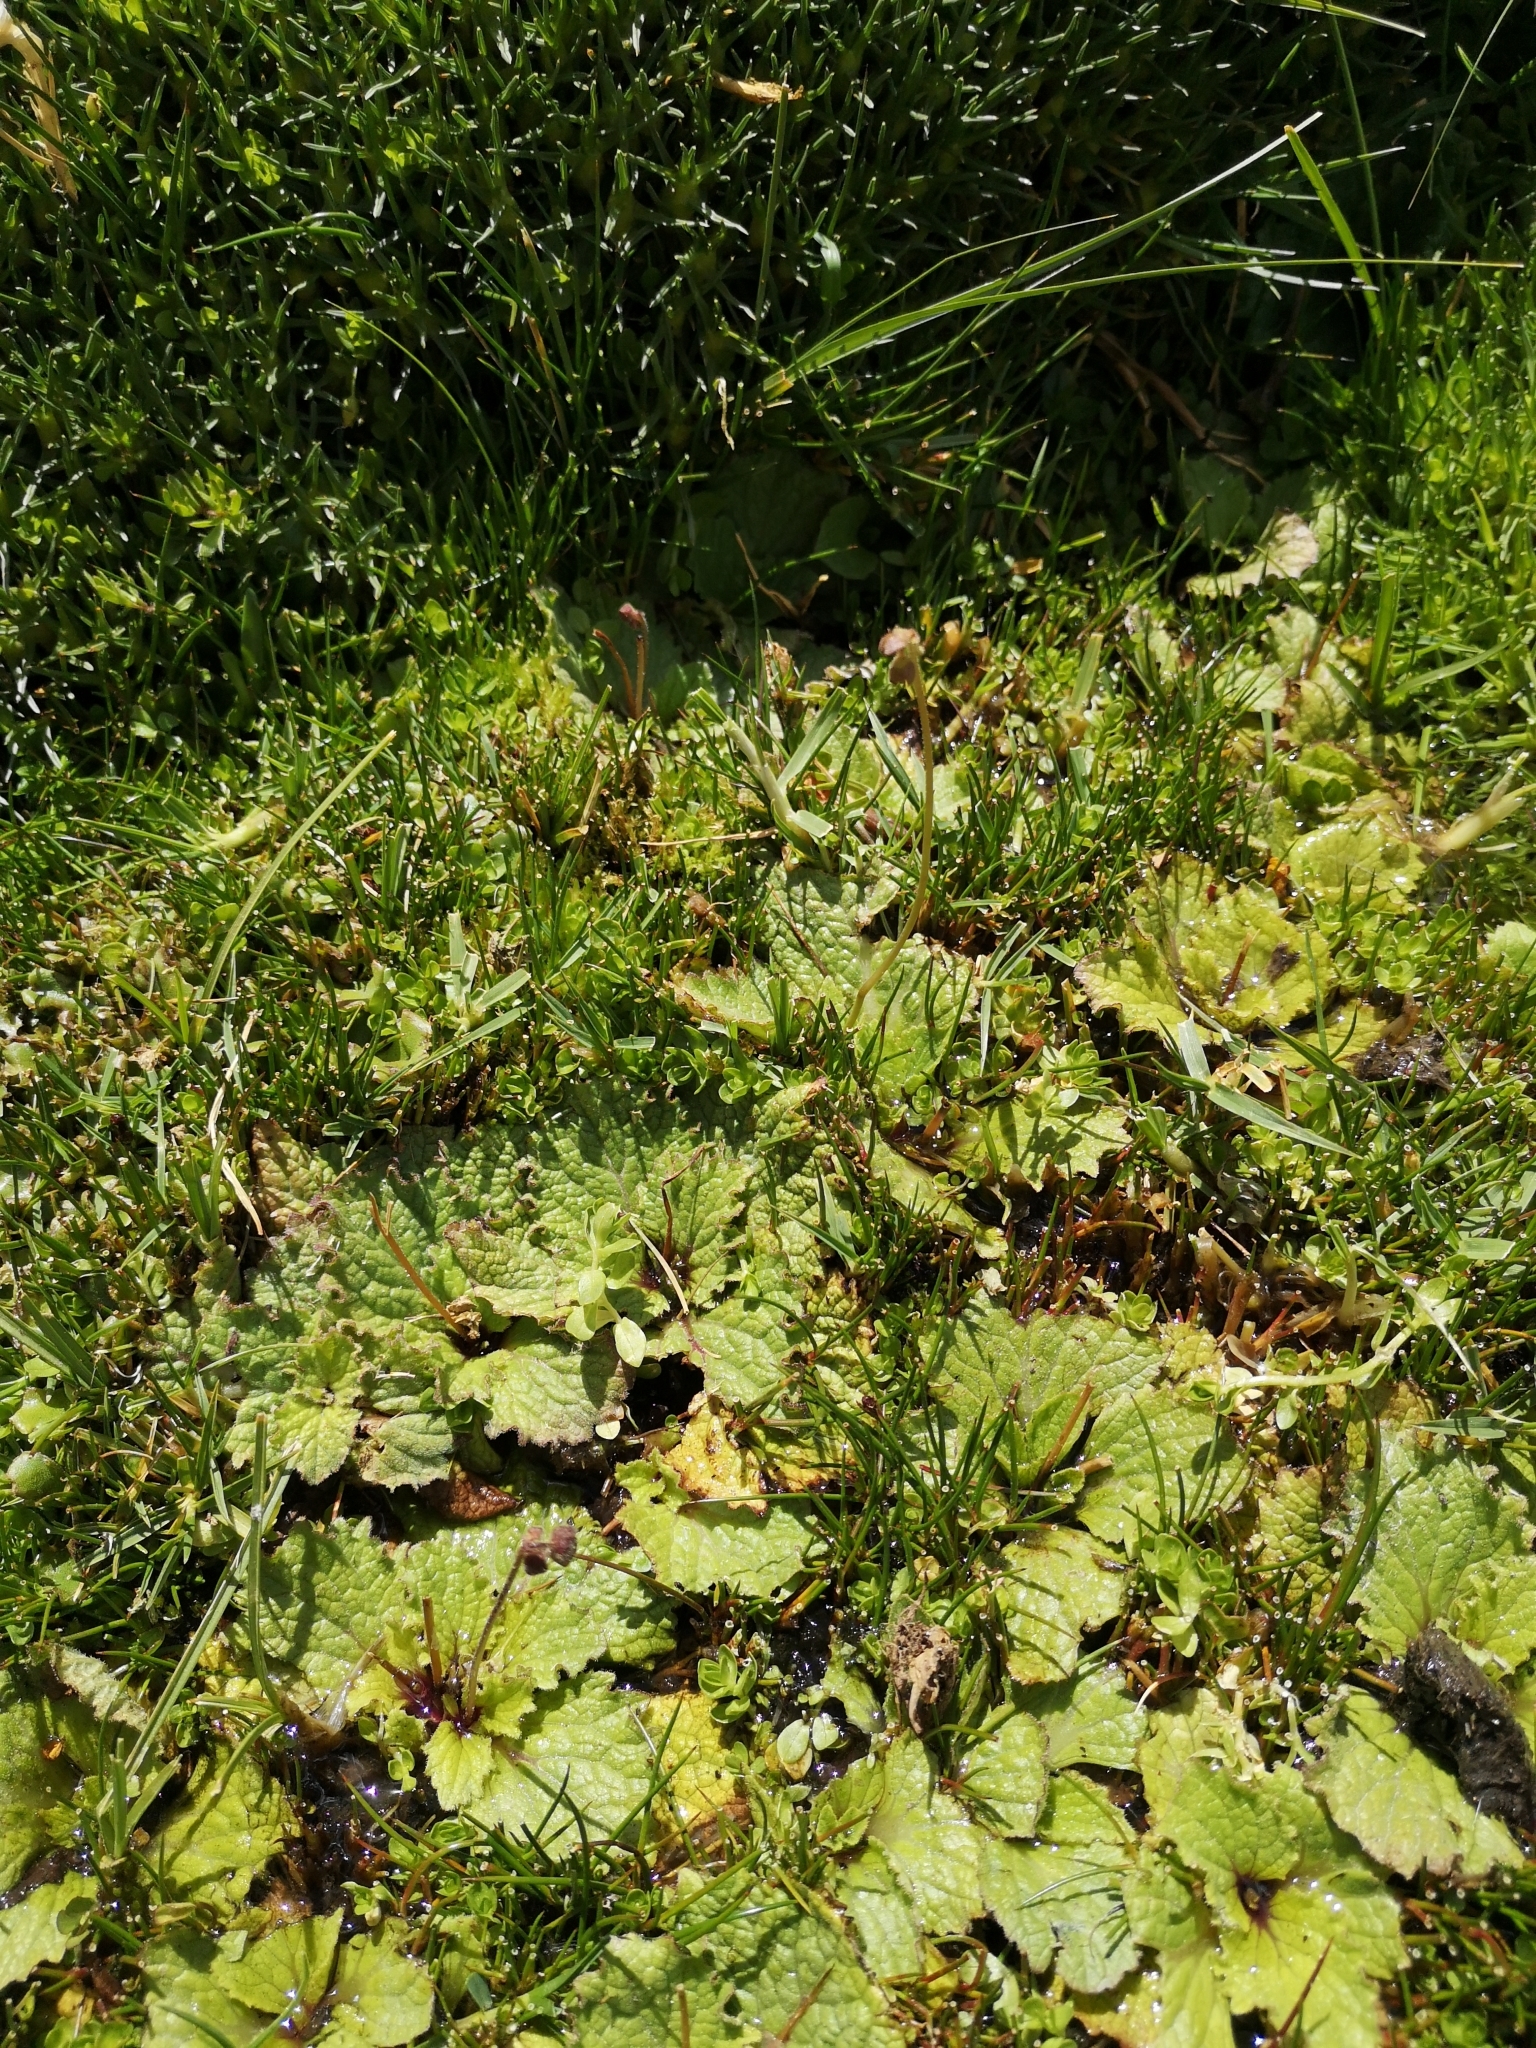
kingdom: Plantae
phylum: Tracheophyta
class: Magnoliopsida
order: Lamiales
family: Calceolariaceae
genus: Calceolaria
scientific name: Calceolaria filicaulis
